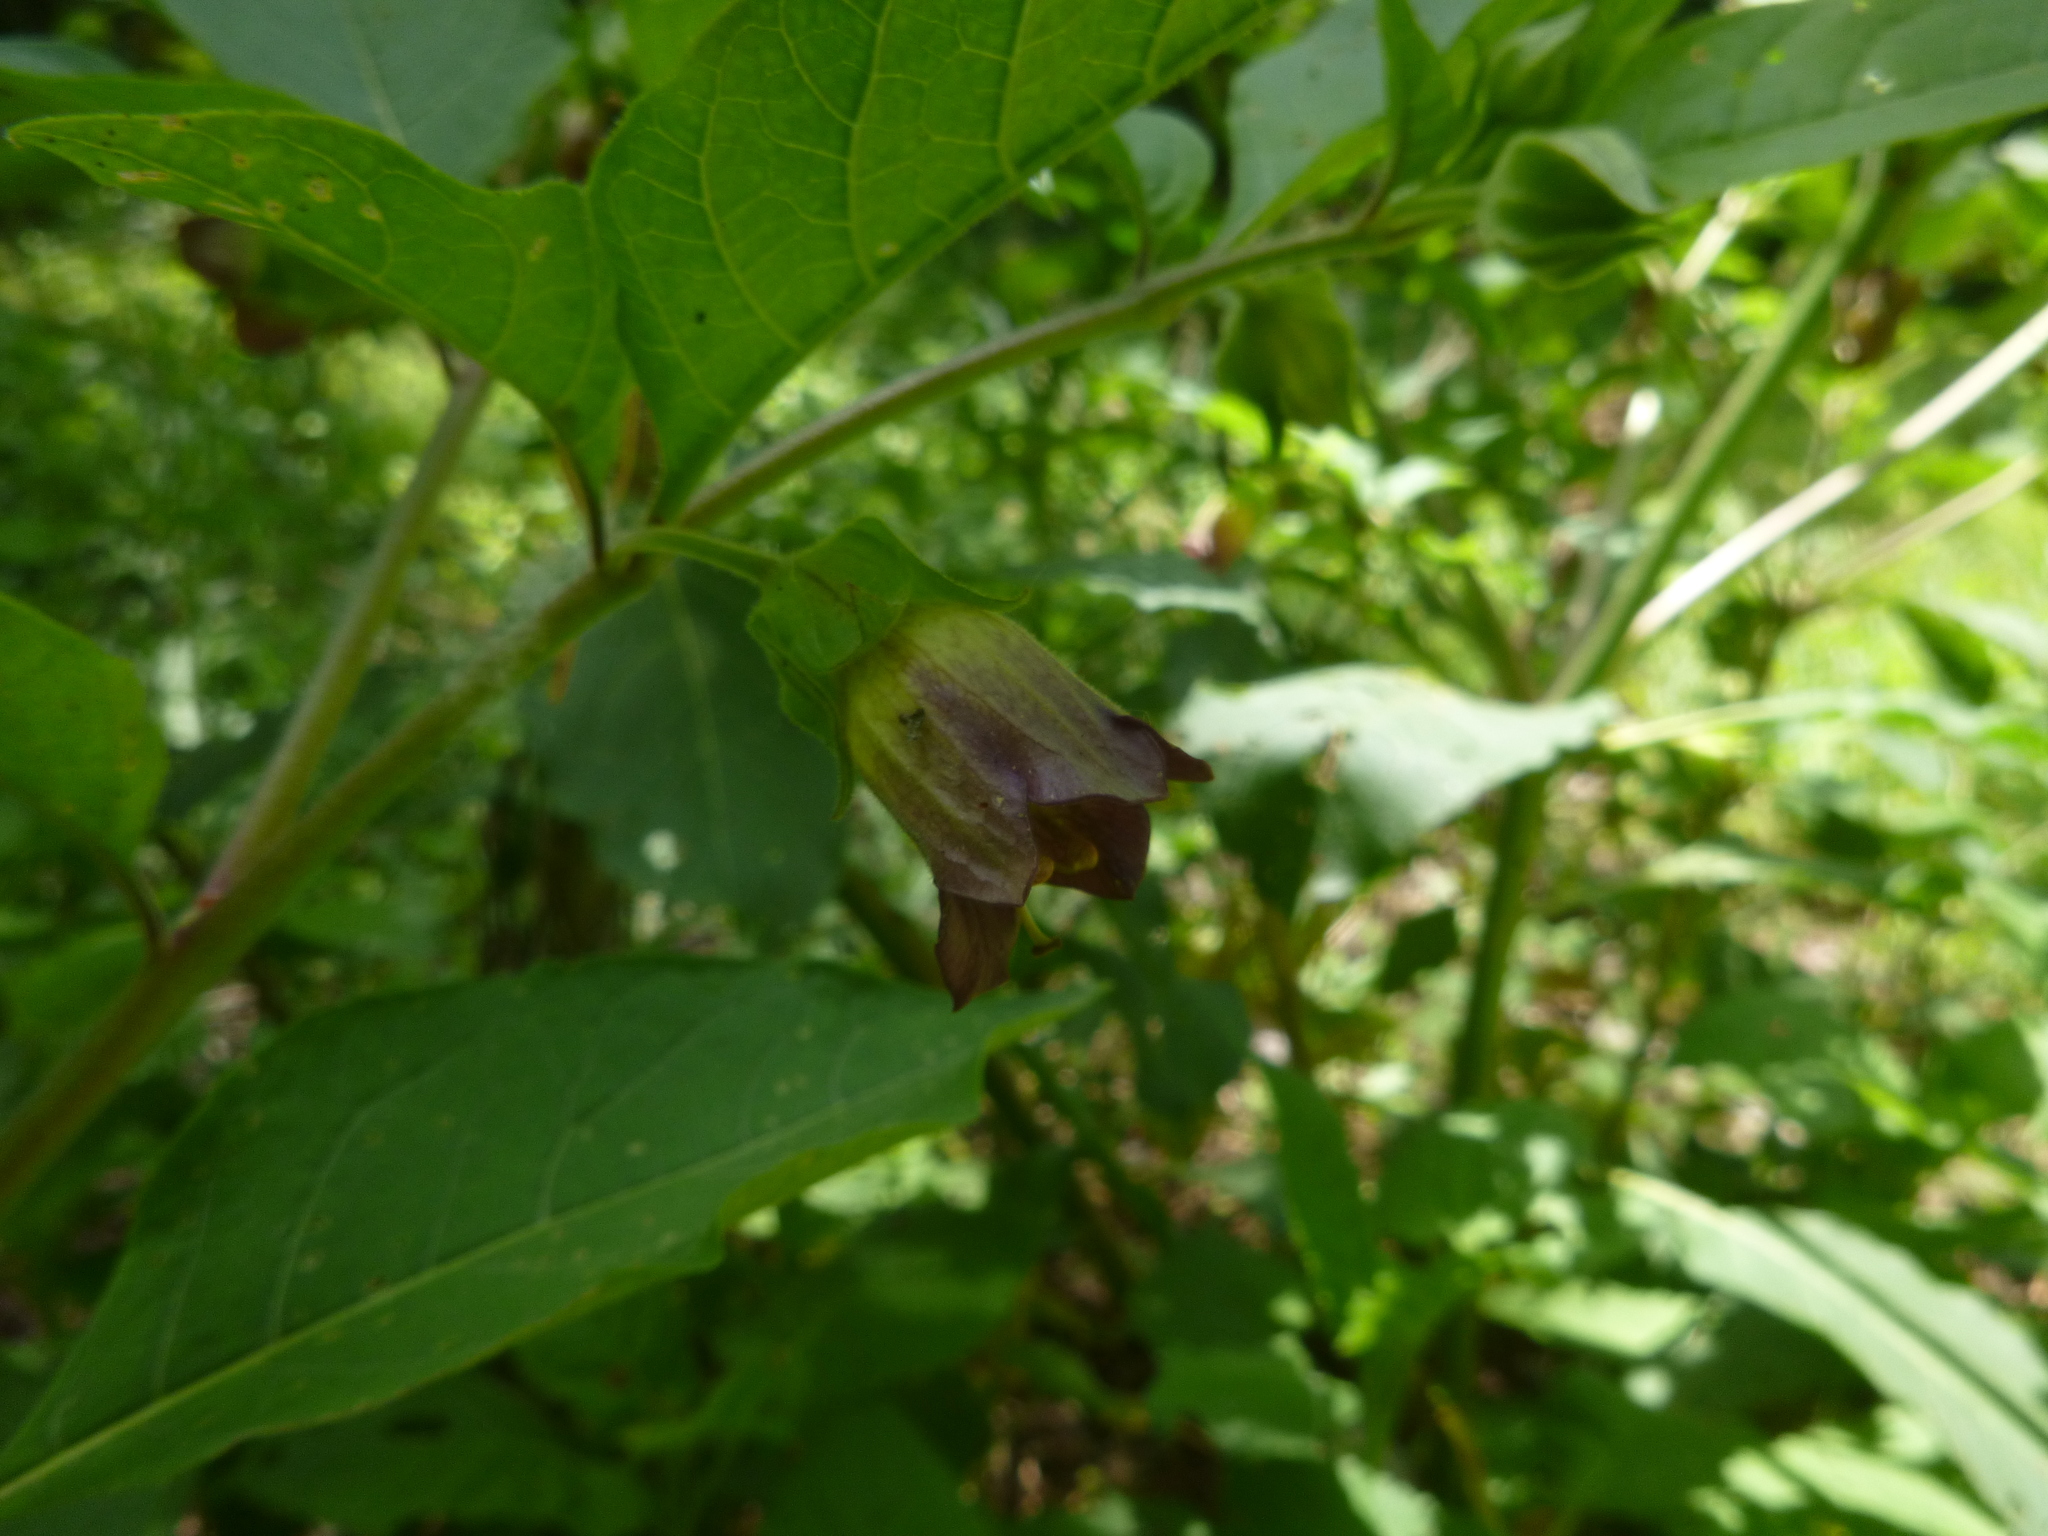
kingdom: Plantae
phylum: Tracheophyta
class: Magnoliopsida
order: Solanales
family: Solanaceae
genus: Atropa
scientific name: Atropa belladonna
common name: Deadly nightshade
